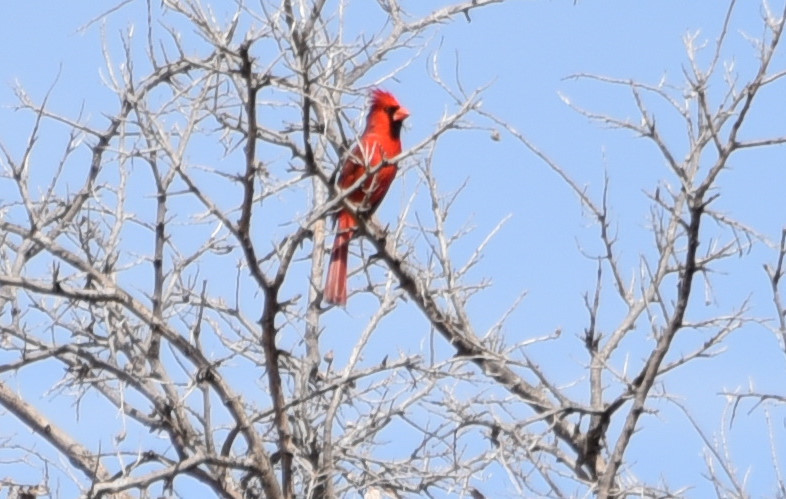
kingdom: Animalia
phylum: Chordata
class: Aves
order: Passeriformes
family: Cardinalidae
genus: Cardinalis
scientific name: Cardinalis cardinalis
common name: Northern cardinal
